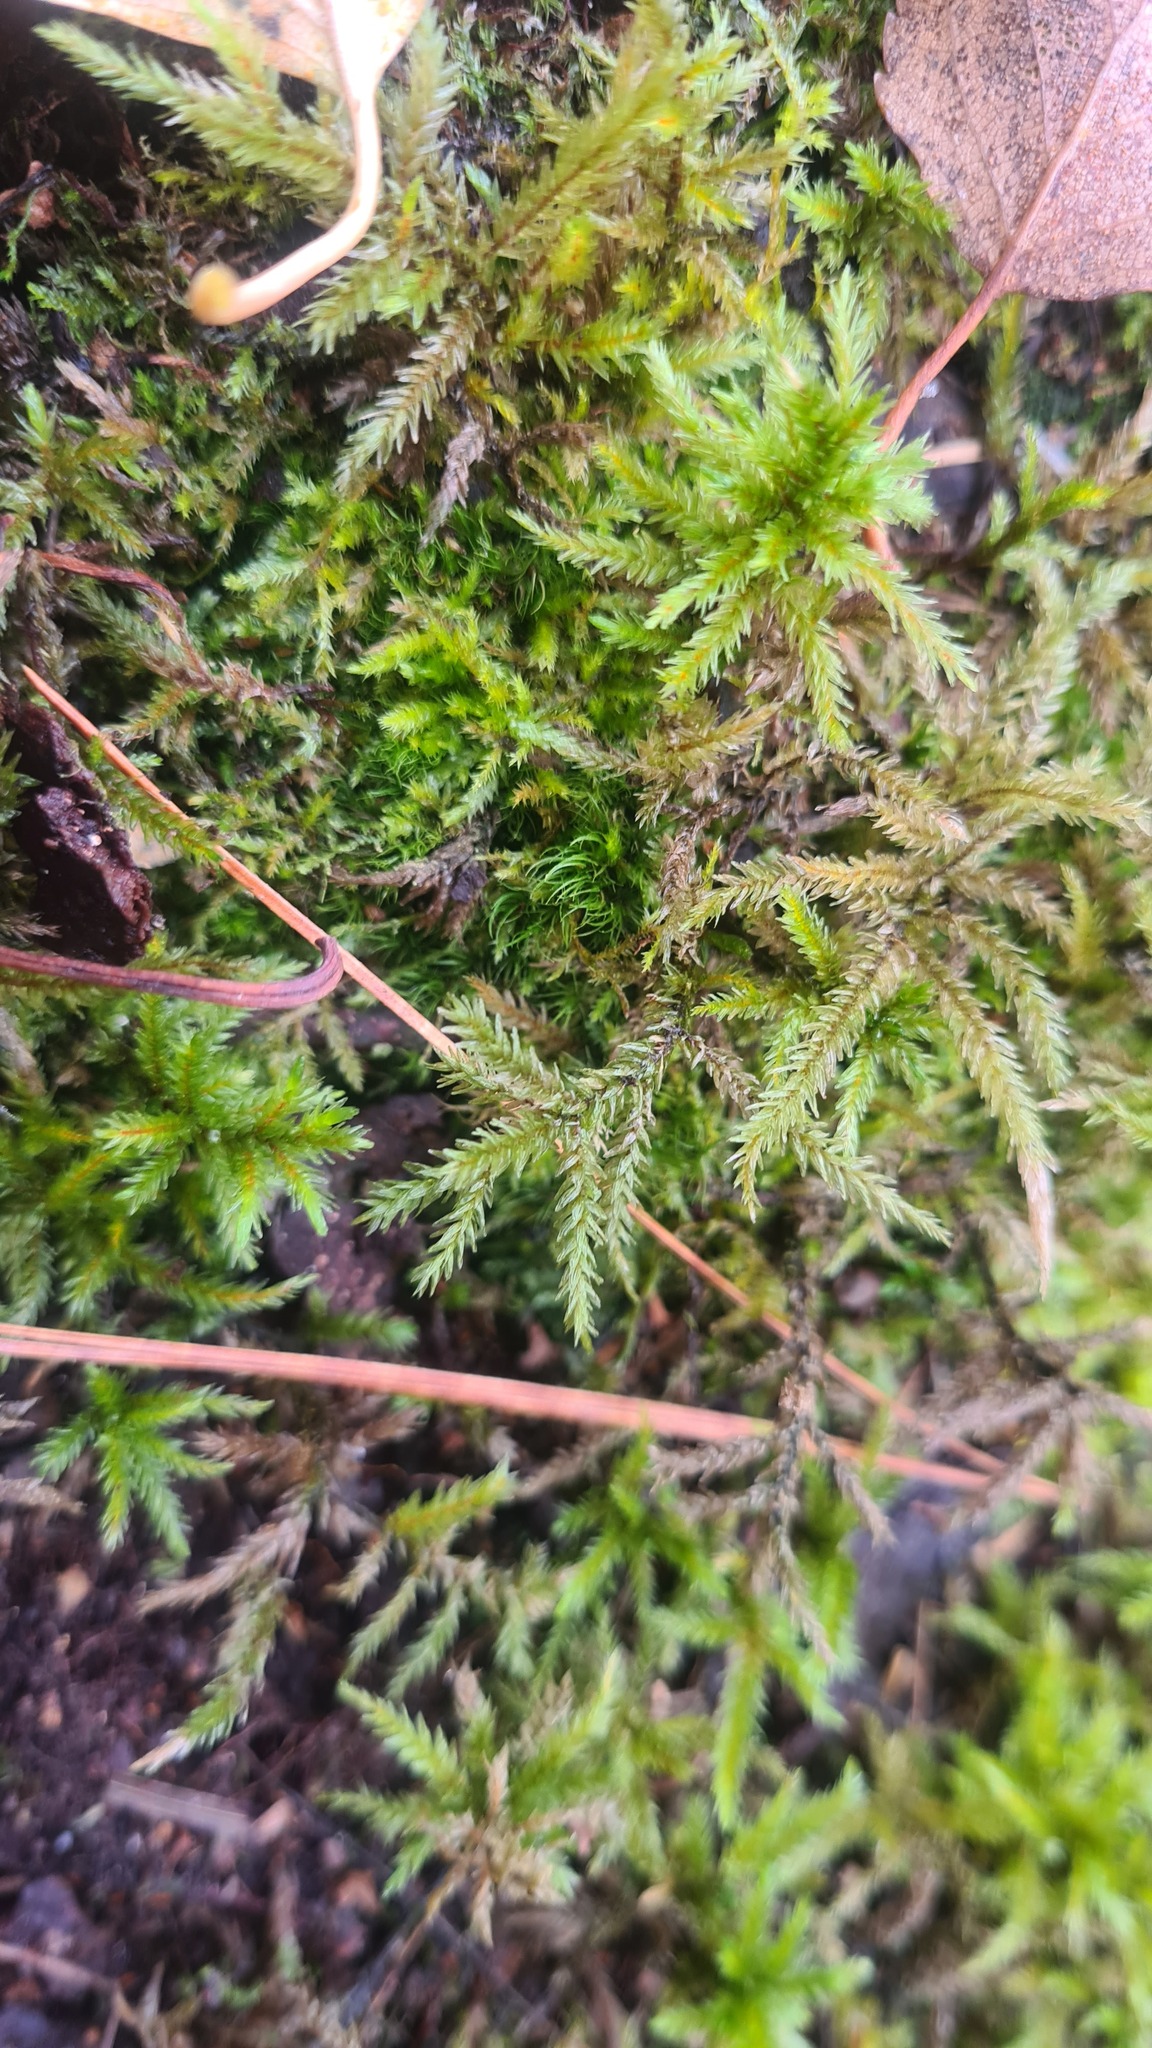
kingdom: Plantae
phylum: Bryophyta
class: Bryopsida
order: Hypnales
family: Climaciaceae
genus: Climacium
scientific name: Climacium dendroides
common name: Northern tree moss
